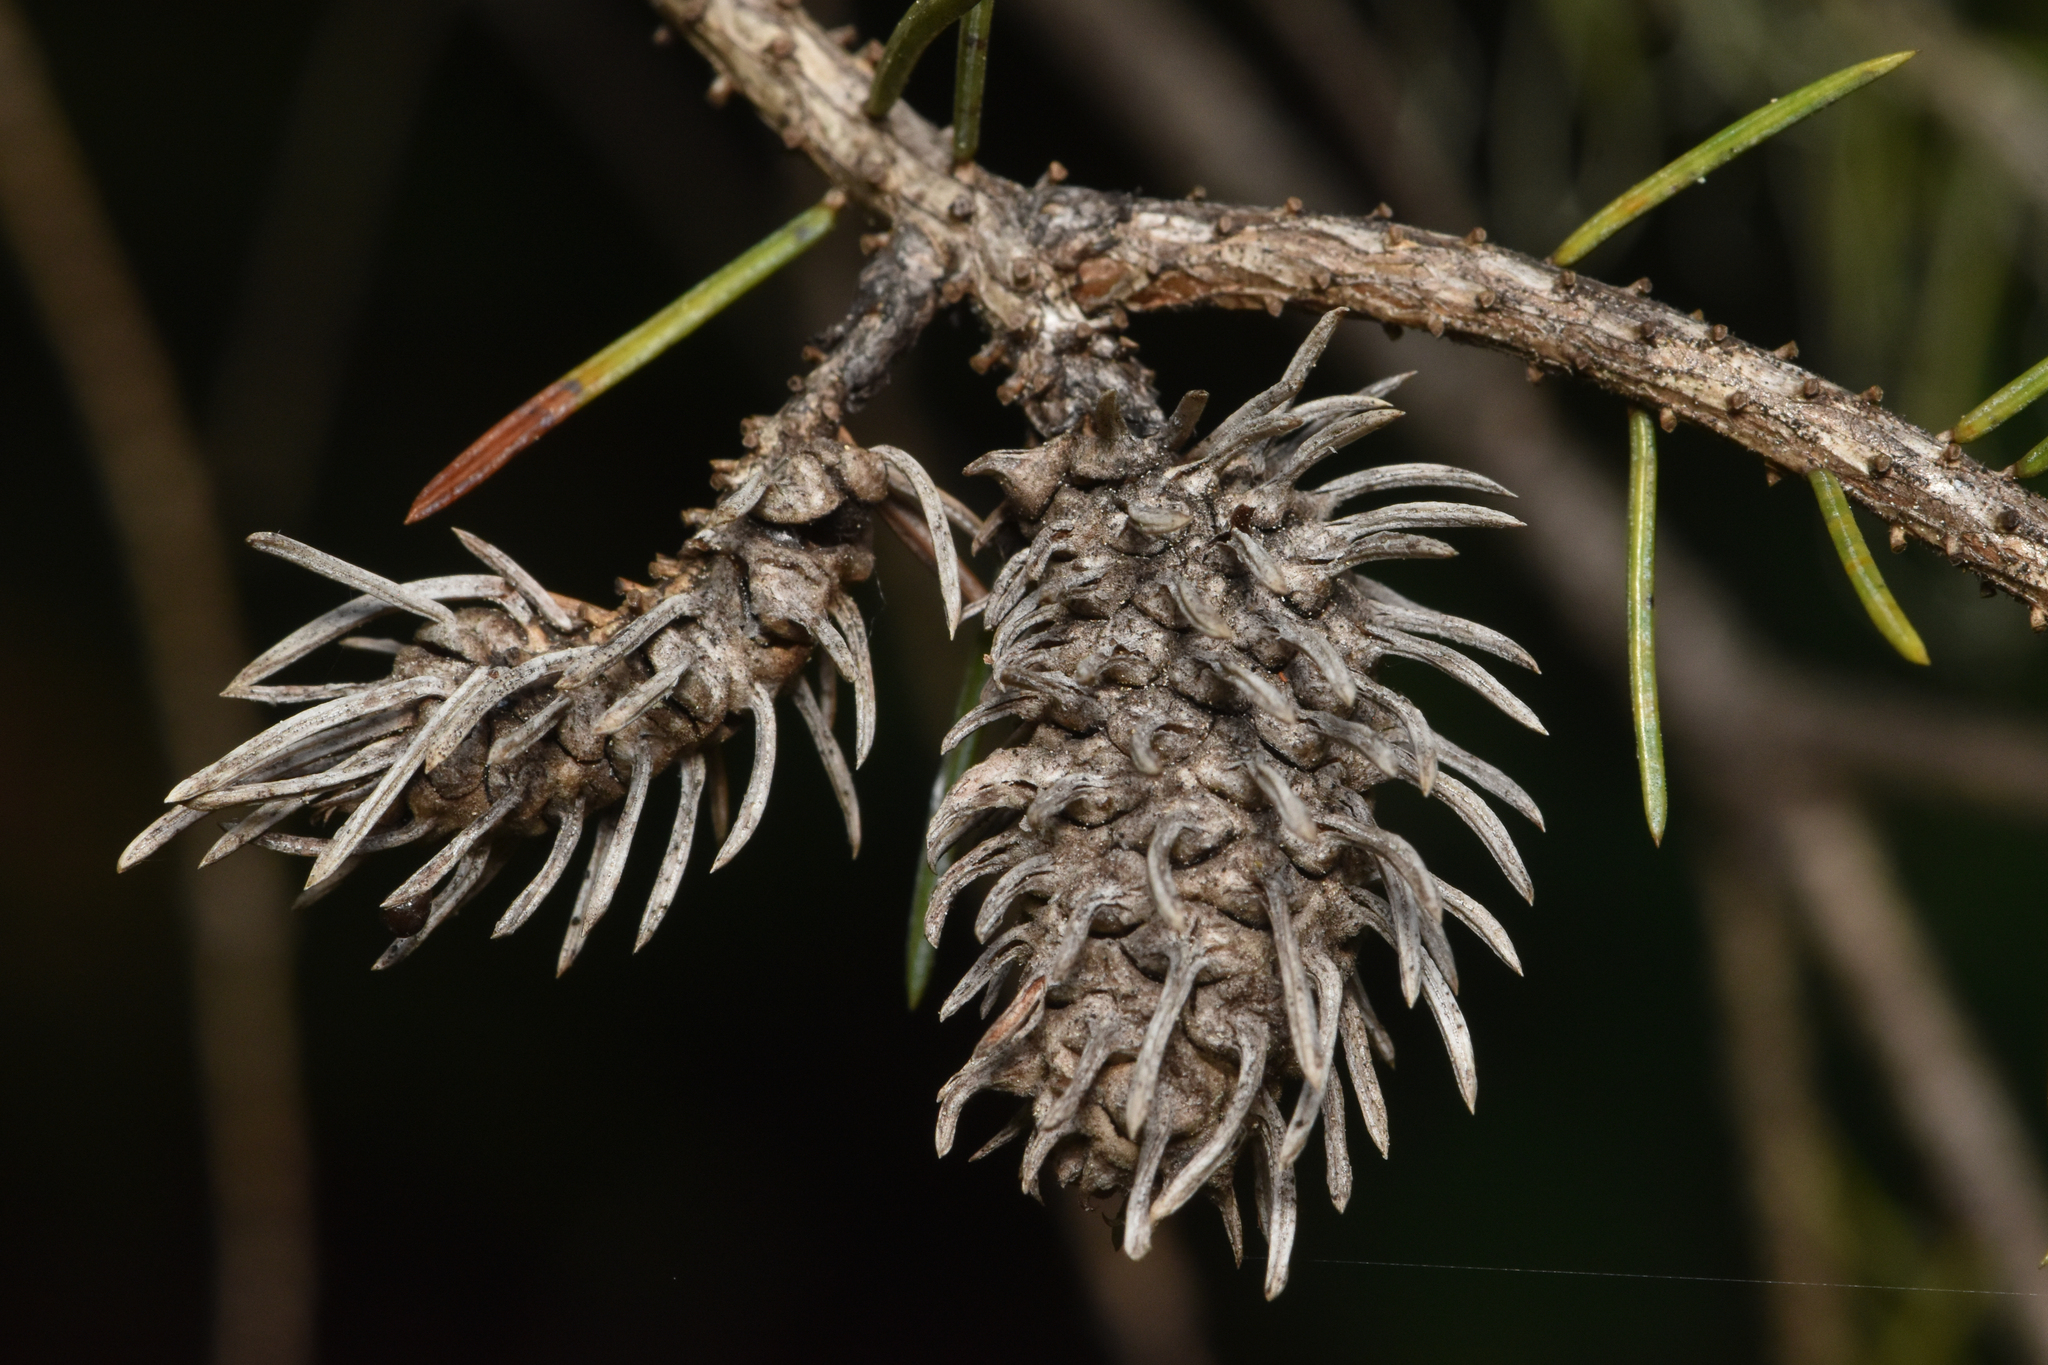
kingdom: Animalia
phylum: Arthropoda
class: Insecta
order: Hemiptera
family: Adelgidae
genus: Adelges
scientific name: Adelges cooleyi
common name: Cooley spruce gall adelgid
